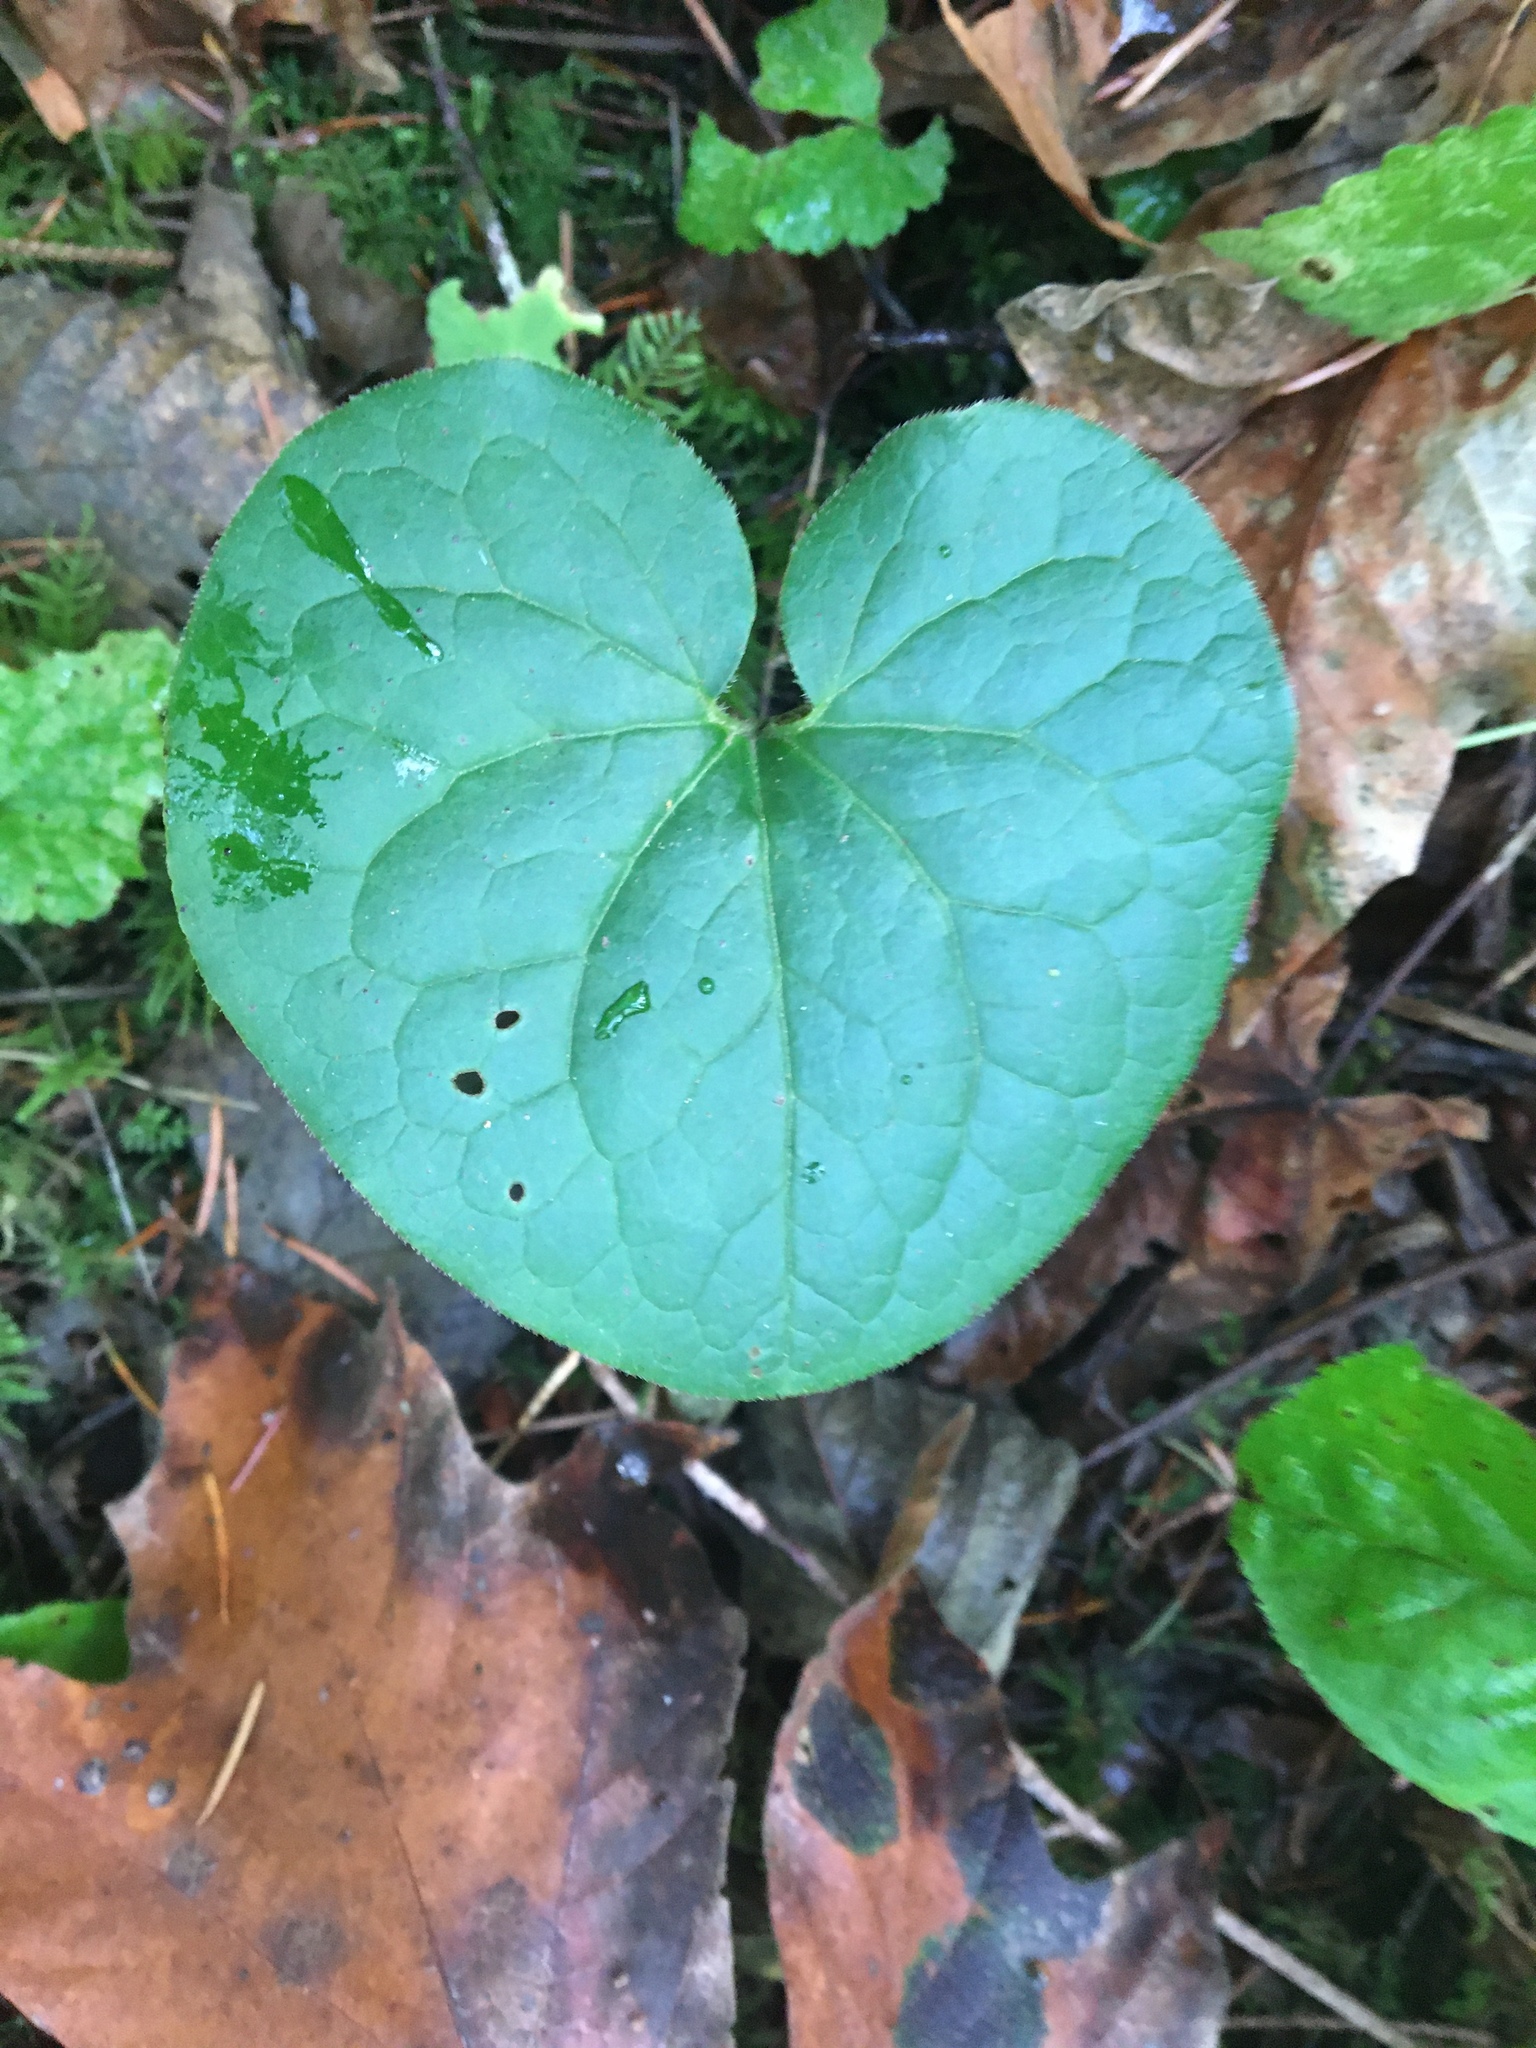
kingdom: Plantae
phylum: Tracheophyta
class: Magnoliopsida
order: Piperales
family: Aristolochiaceae
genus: Asarum
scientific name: Asarum caudatum
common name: Wild ginger
